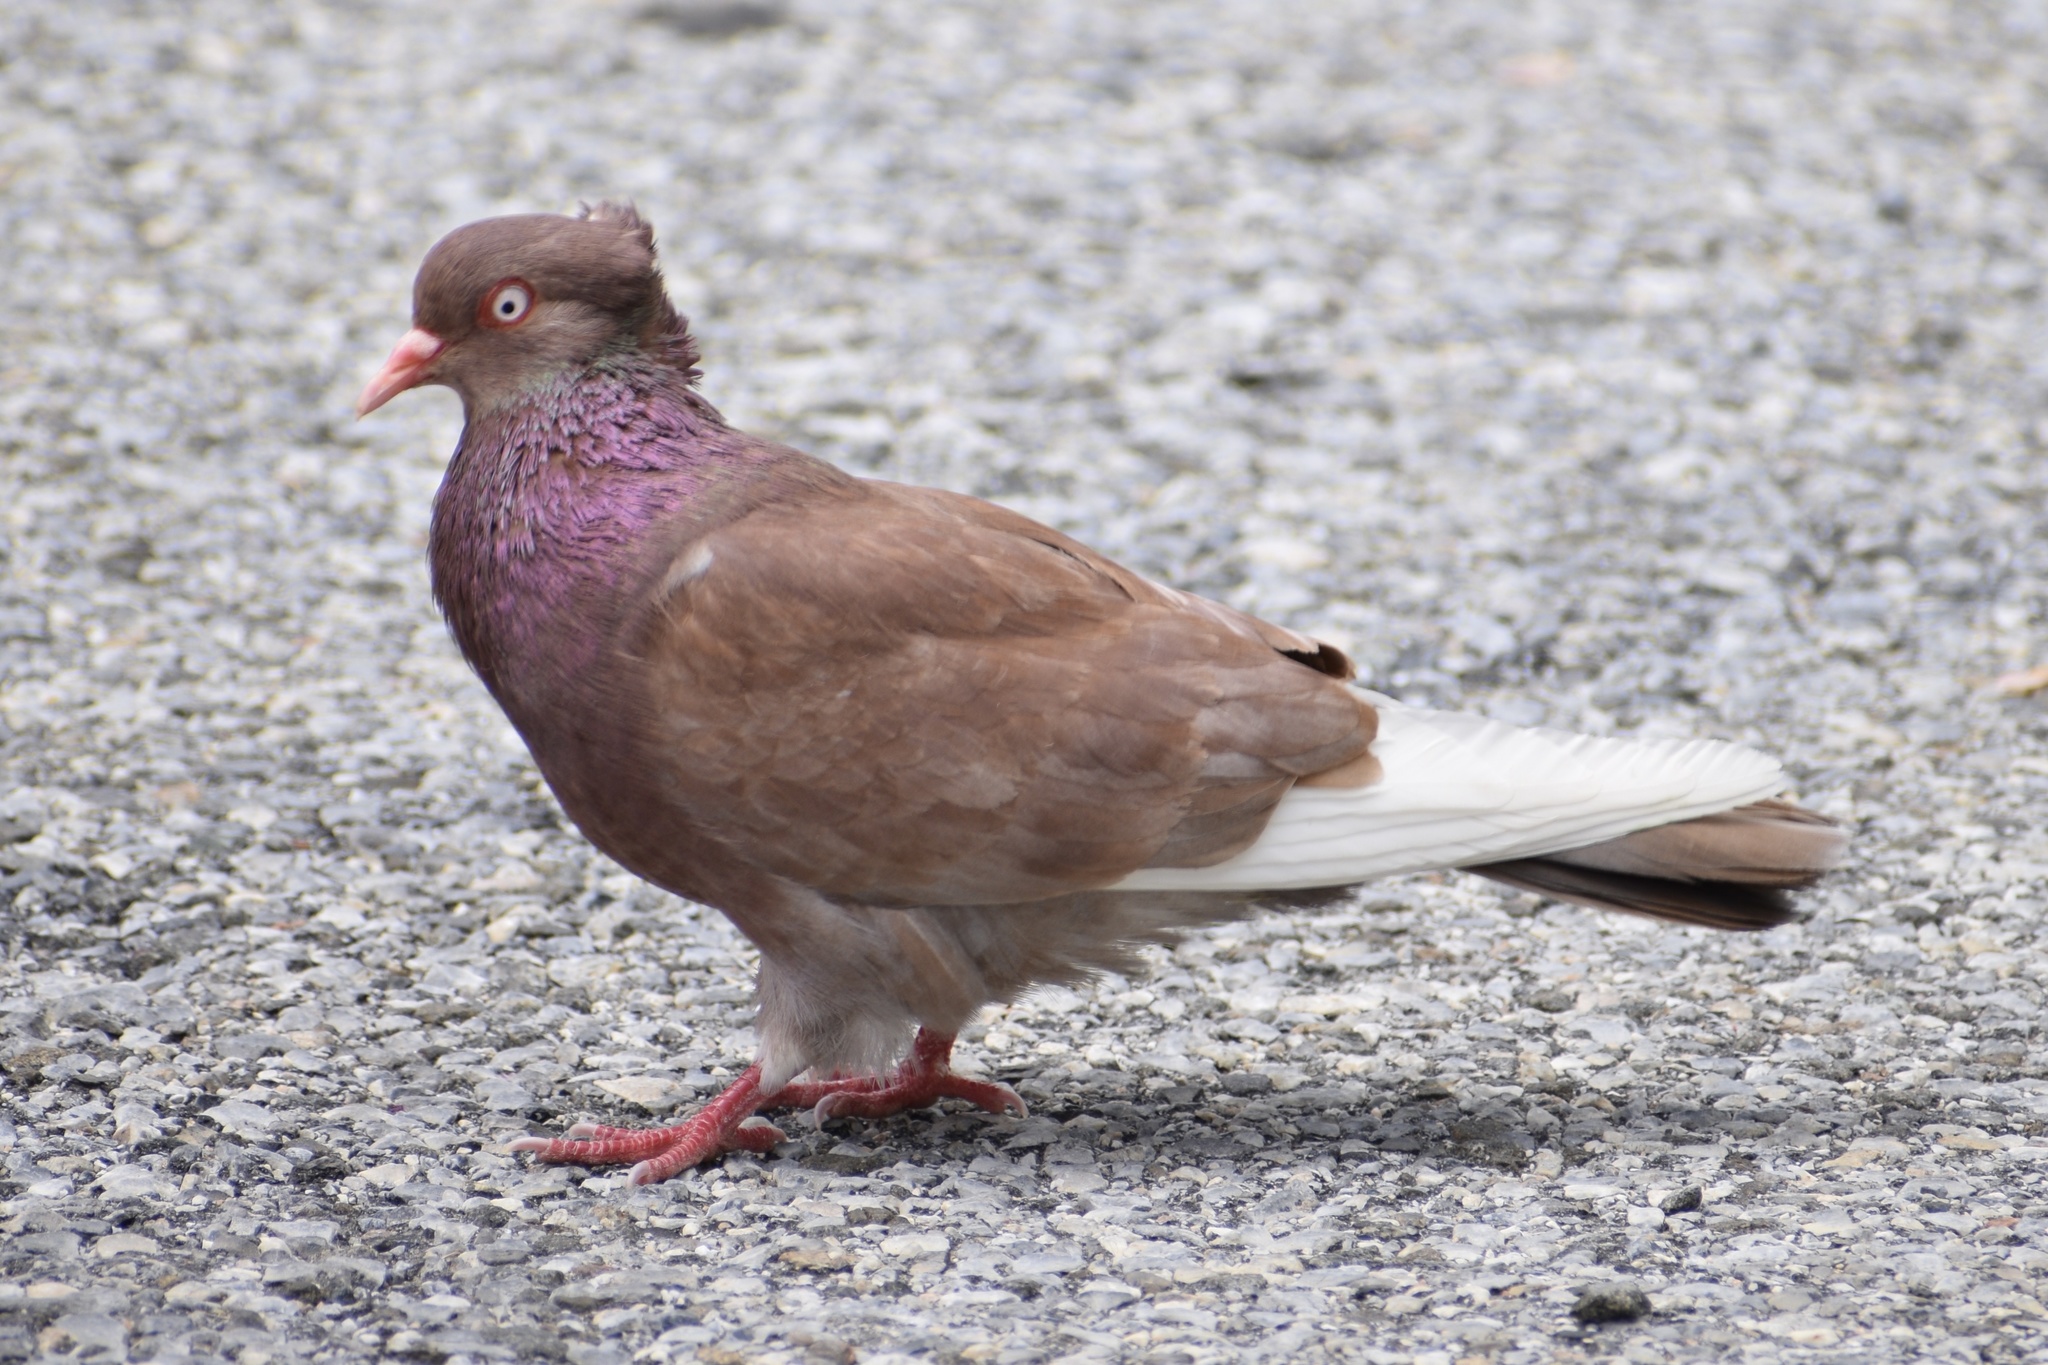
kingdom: Animalia
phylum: Chordata
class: Aves
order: Columbiformes
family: Columbidae
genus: Columba
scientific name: Columba livia
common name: Rock pigeon
